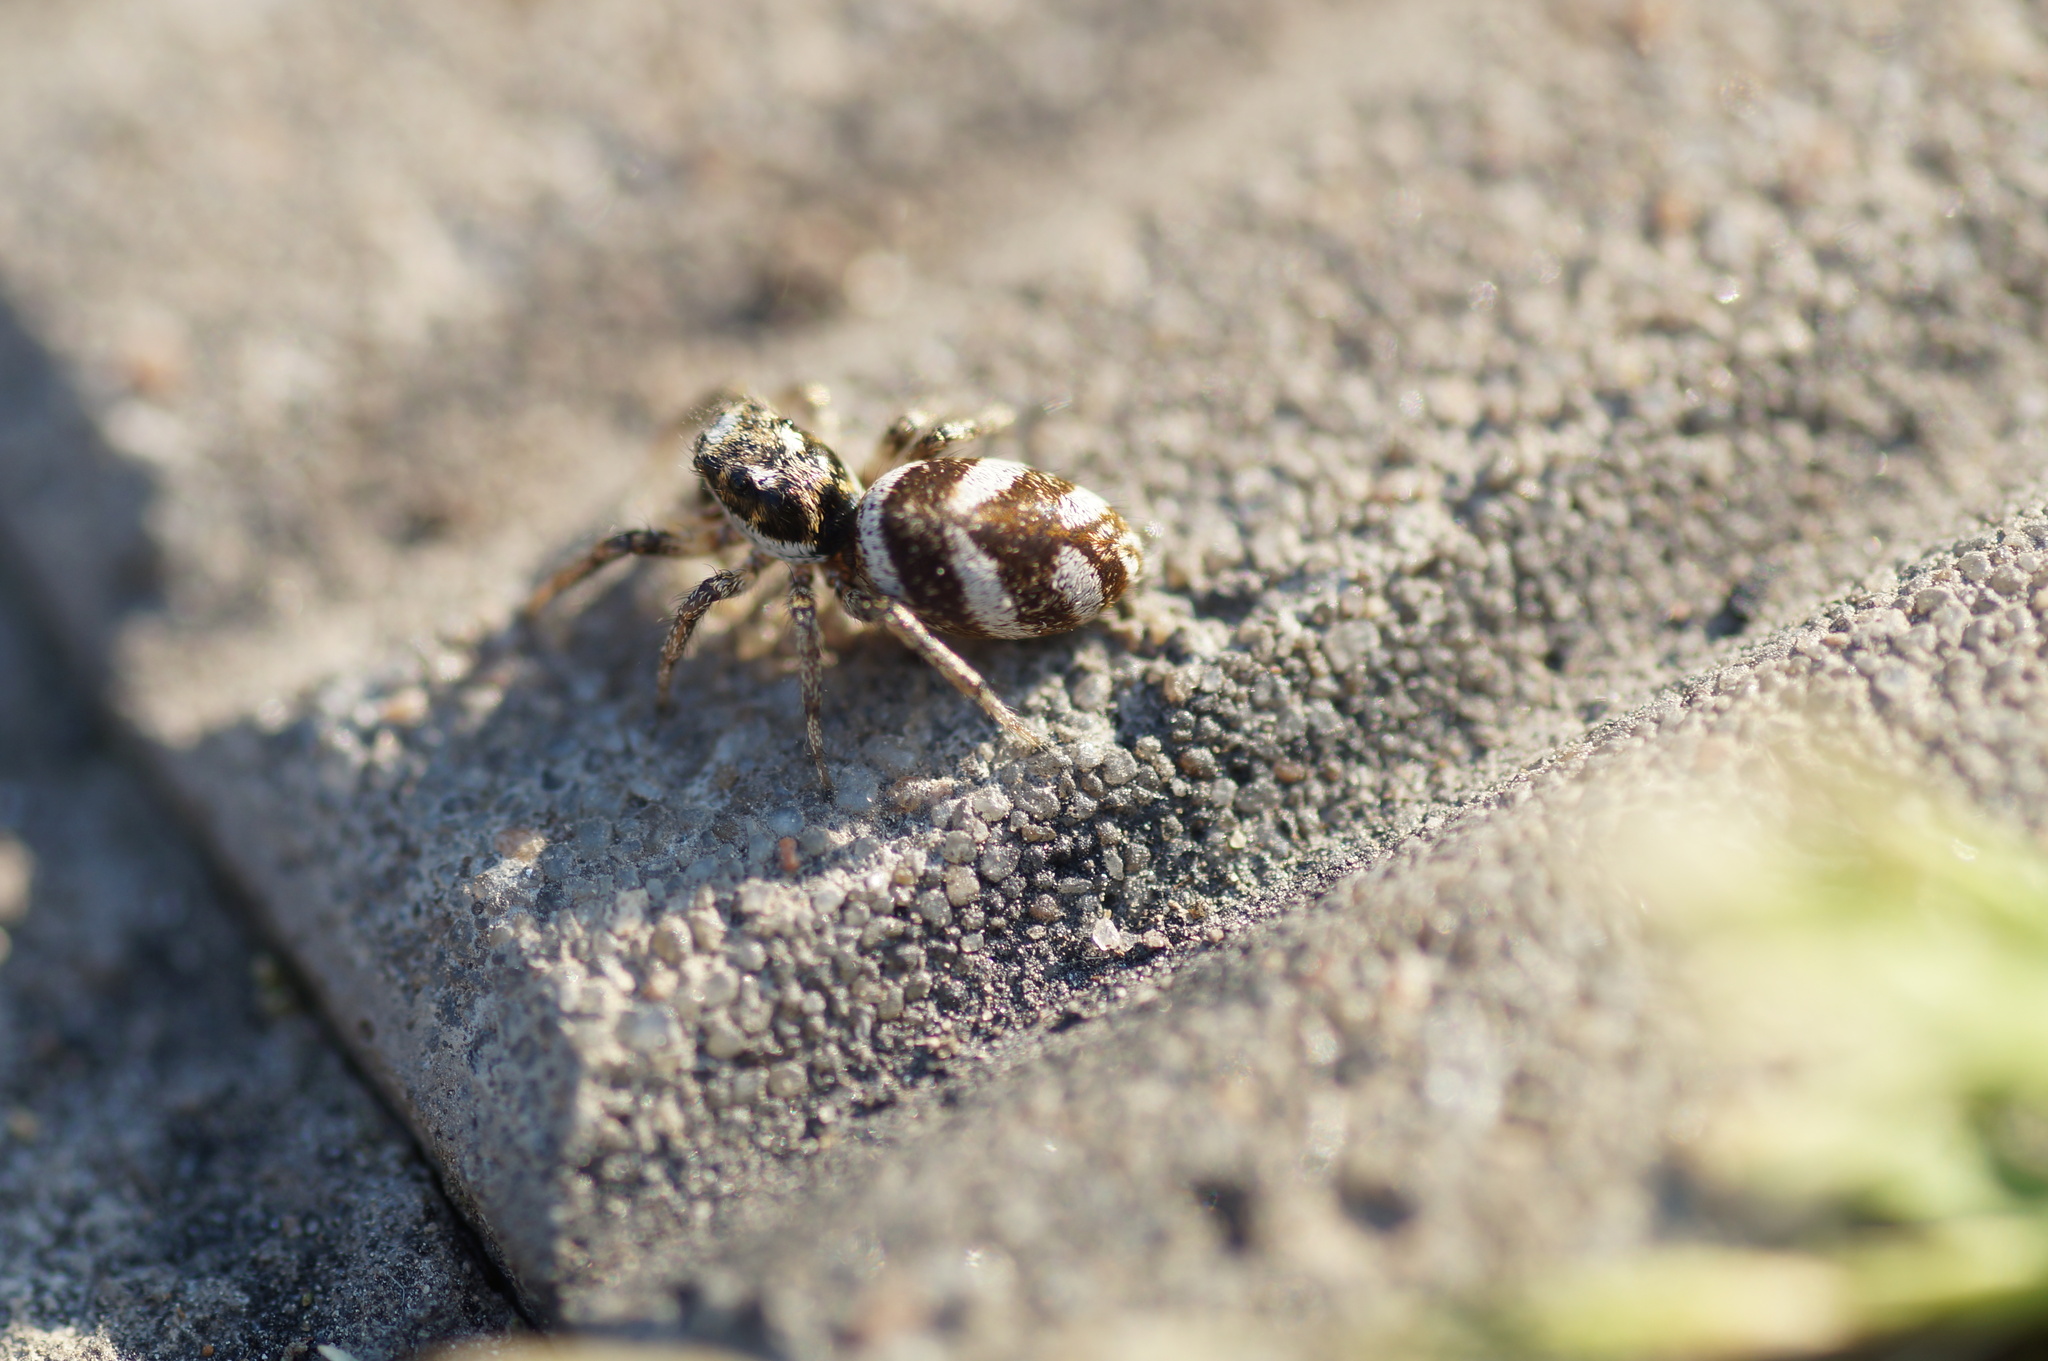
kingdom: Animalia
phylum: Arthropoda
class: Arachnida
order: Araneae
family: Salticidae
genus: Salticus
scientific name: Salticus scenicus
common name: Zebra jumper
